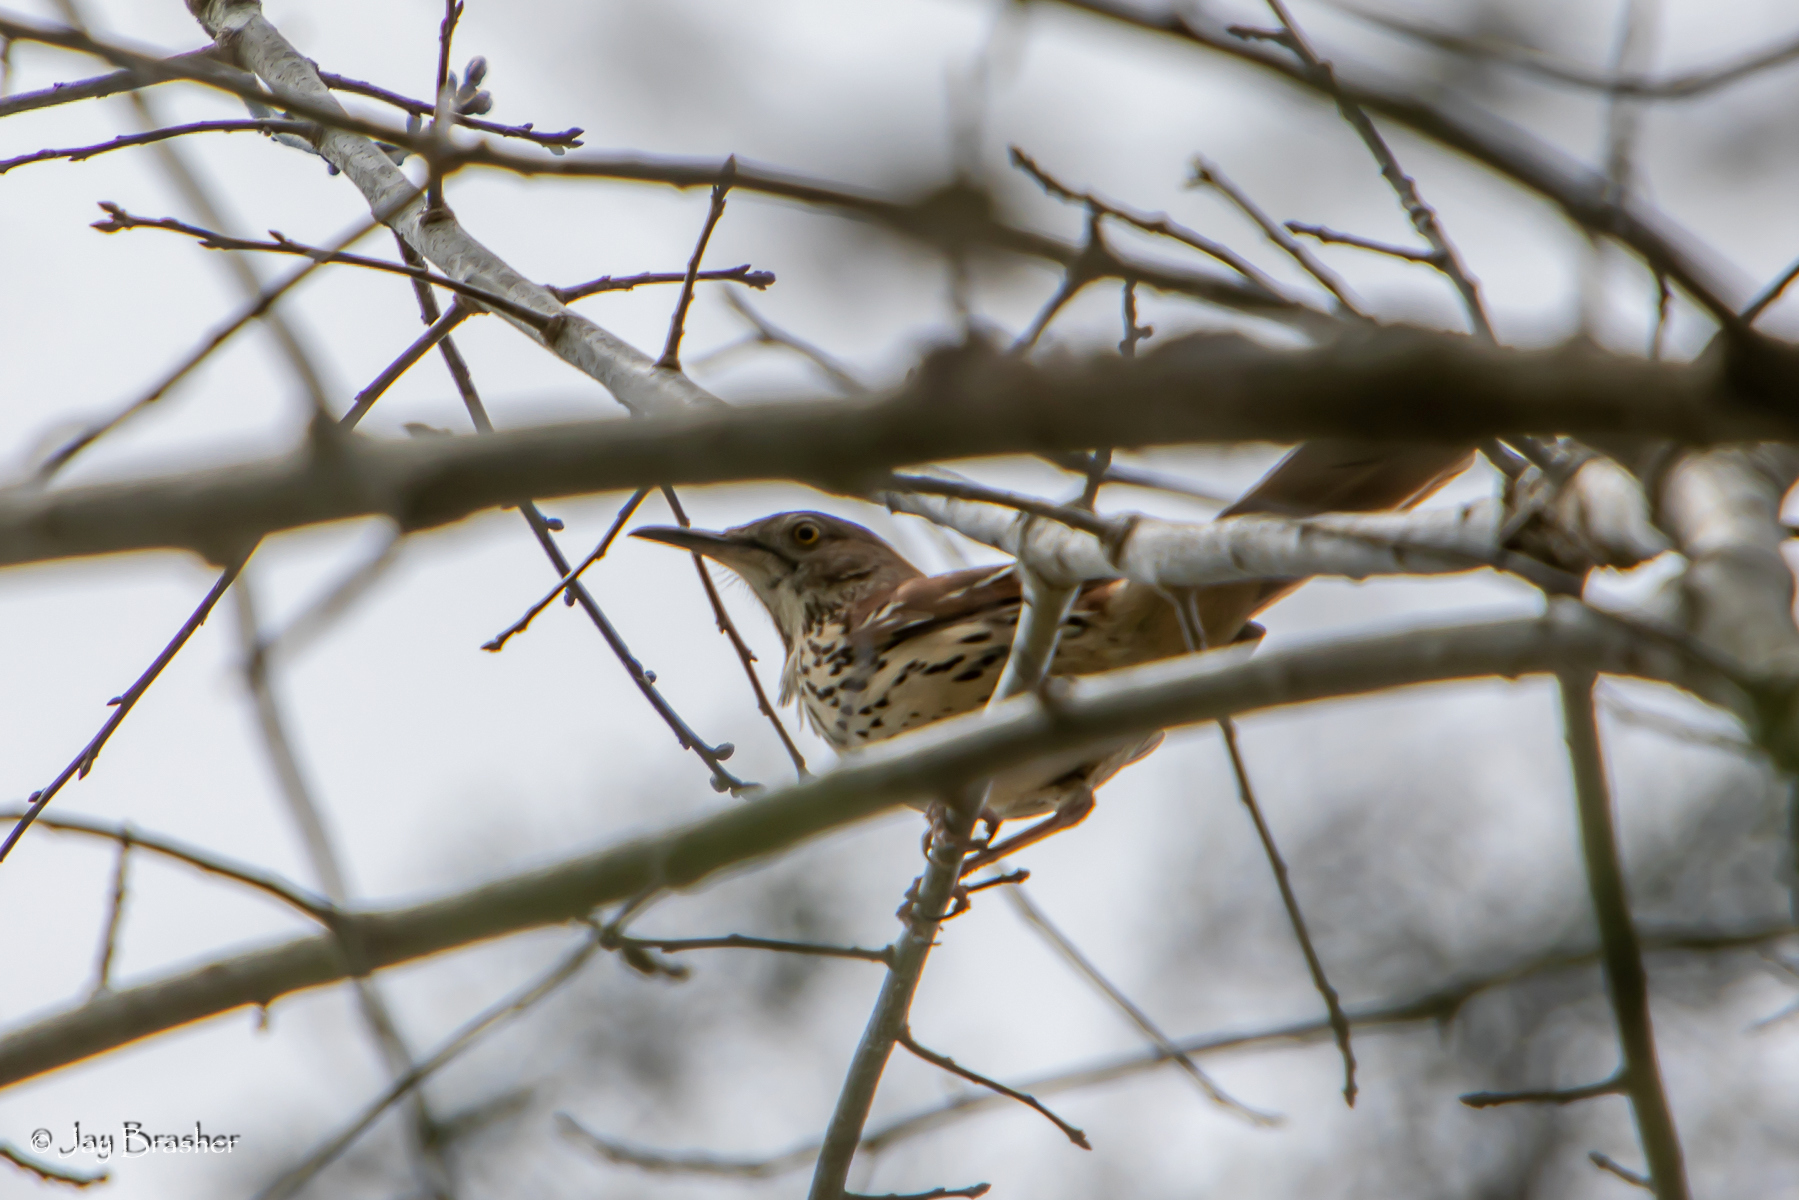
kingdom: Animalia
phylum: Chordata
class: Aves
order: Passeriformes
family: Mimidae
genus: Toxostoma
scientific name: Toxostoma rufum
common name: Brown thrasher
